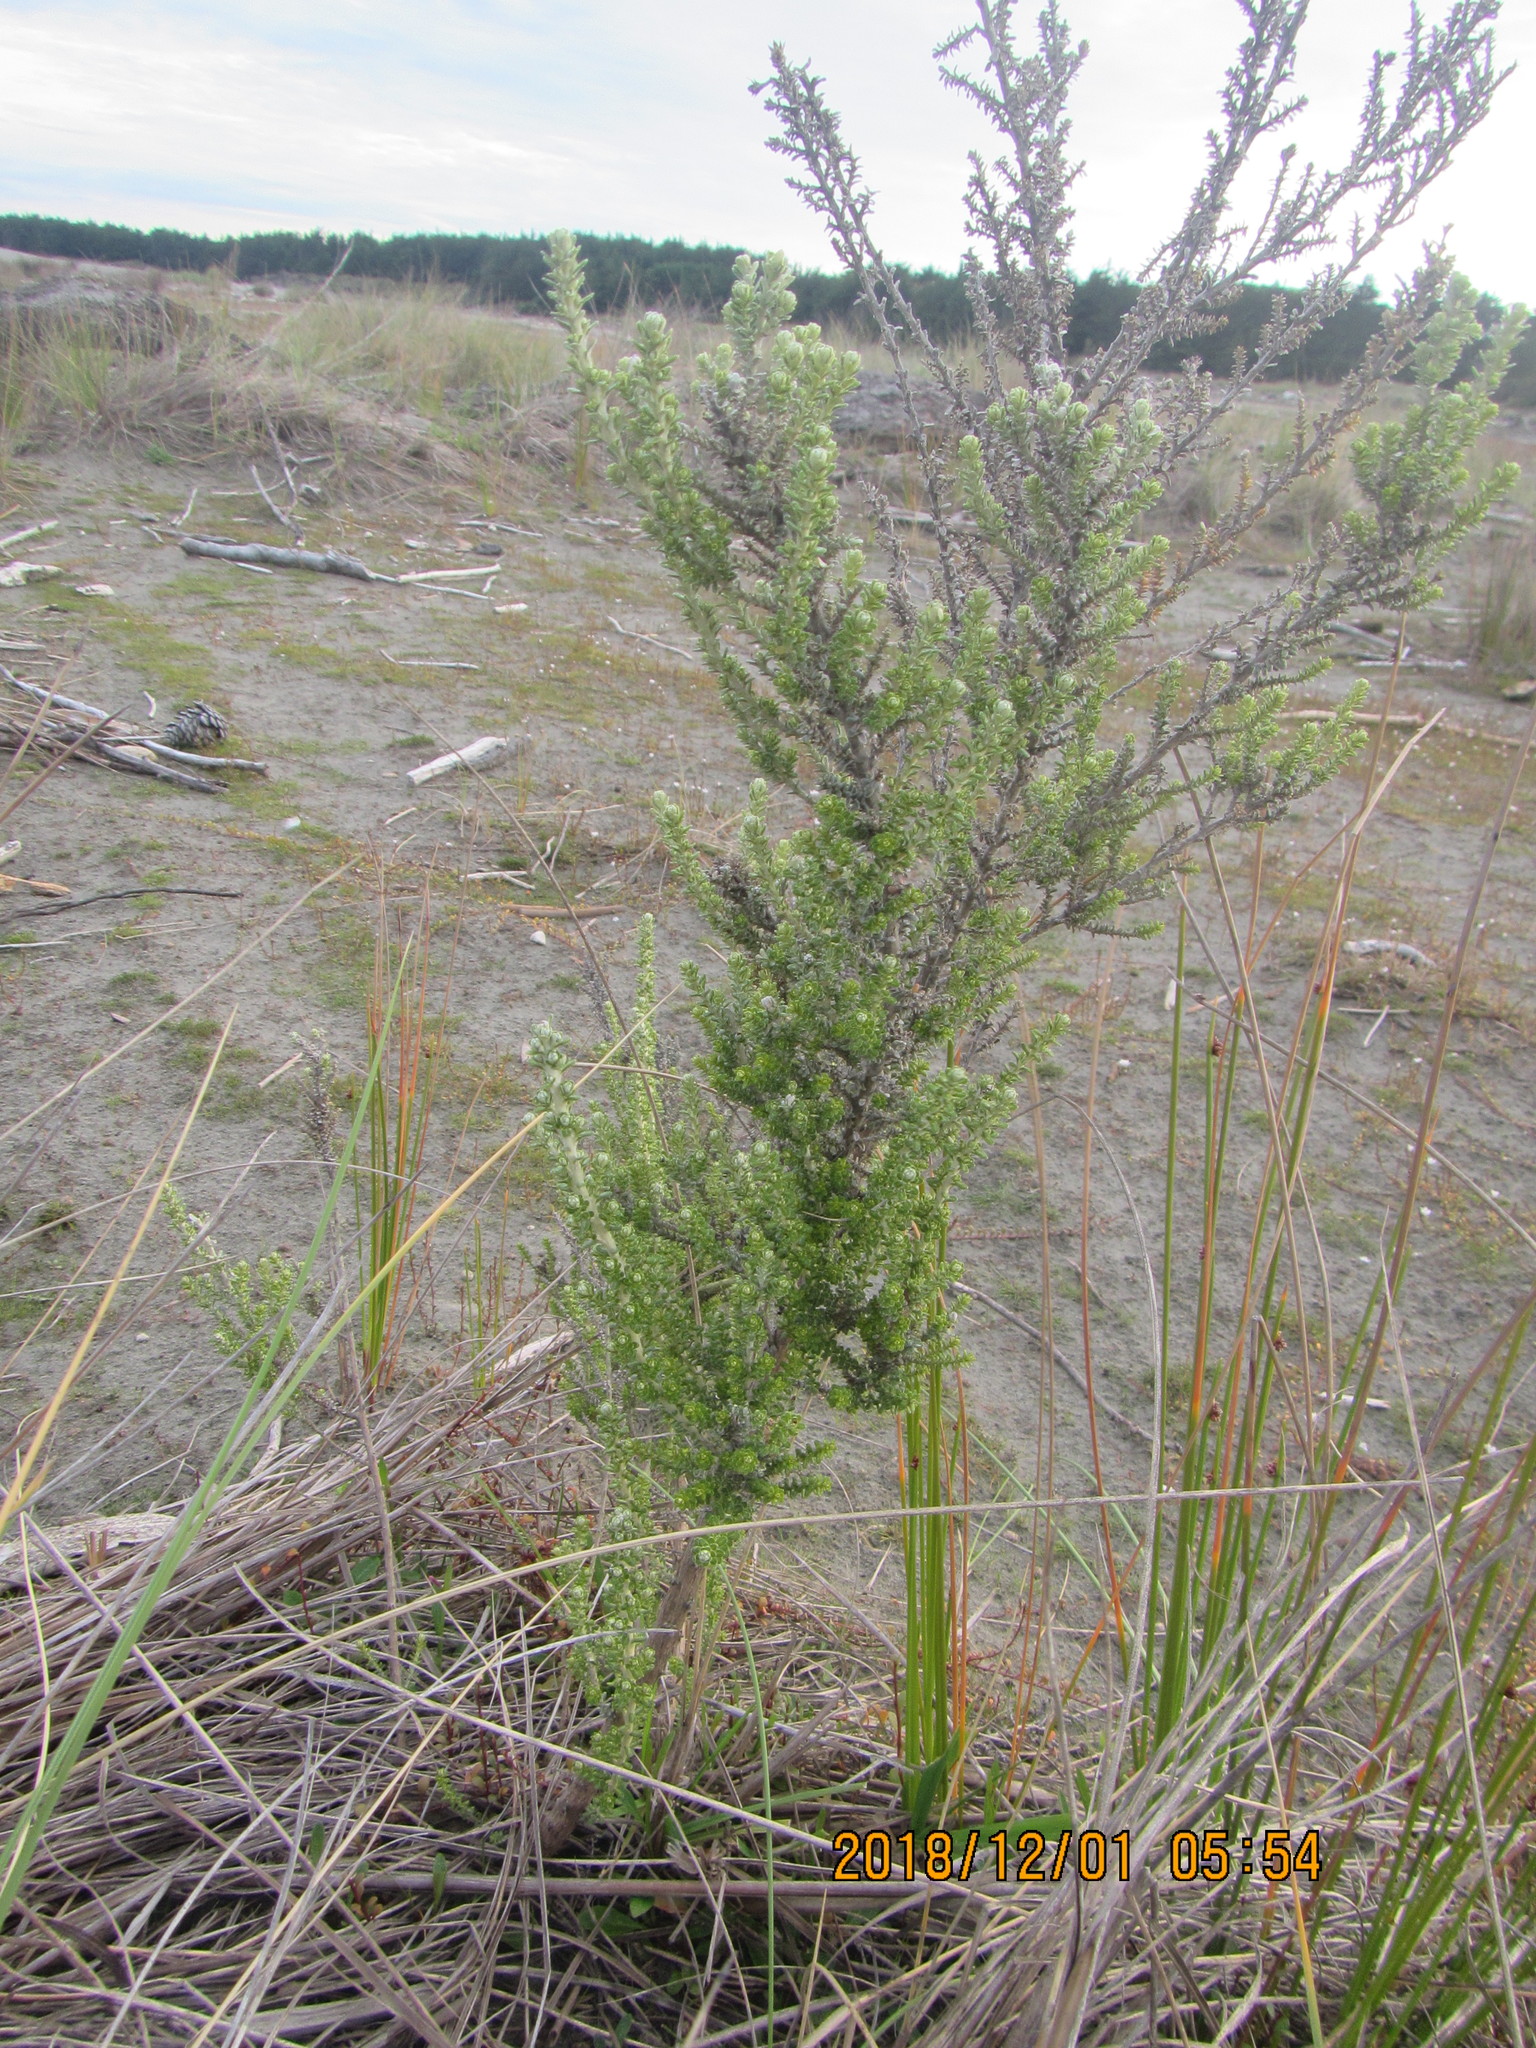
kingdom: Plantae
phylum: Tracheophyta
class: Magnoliopsida
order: Asterales
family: Asteraceae
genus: Ozothamnus
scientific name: Ozothamnus leptophyllus
